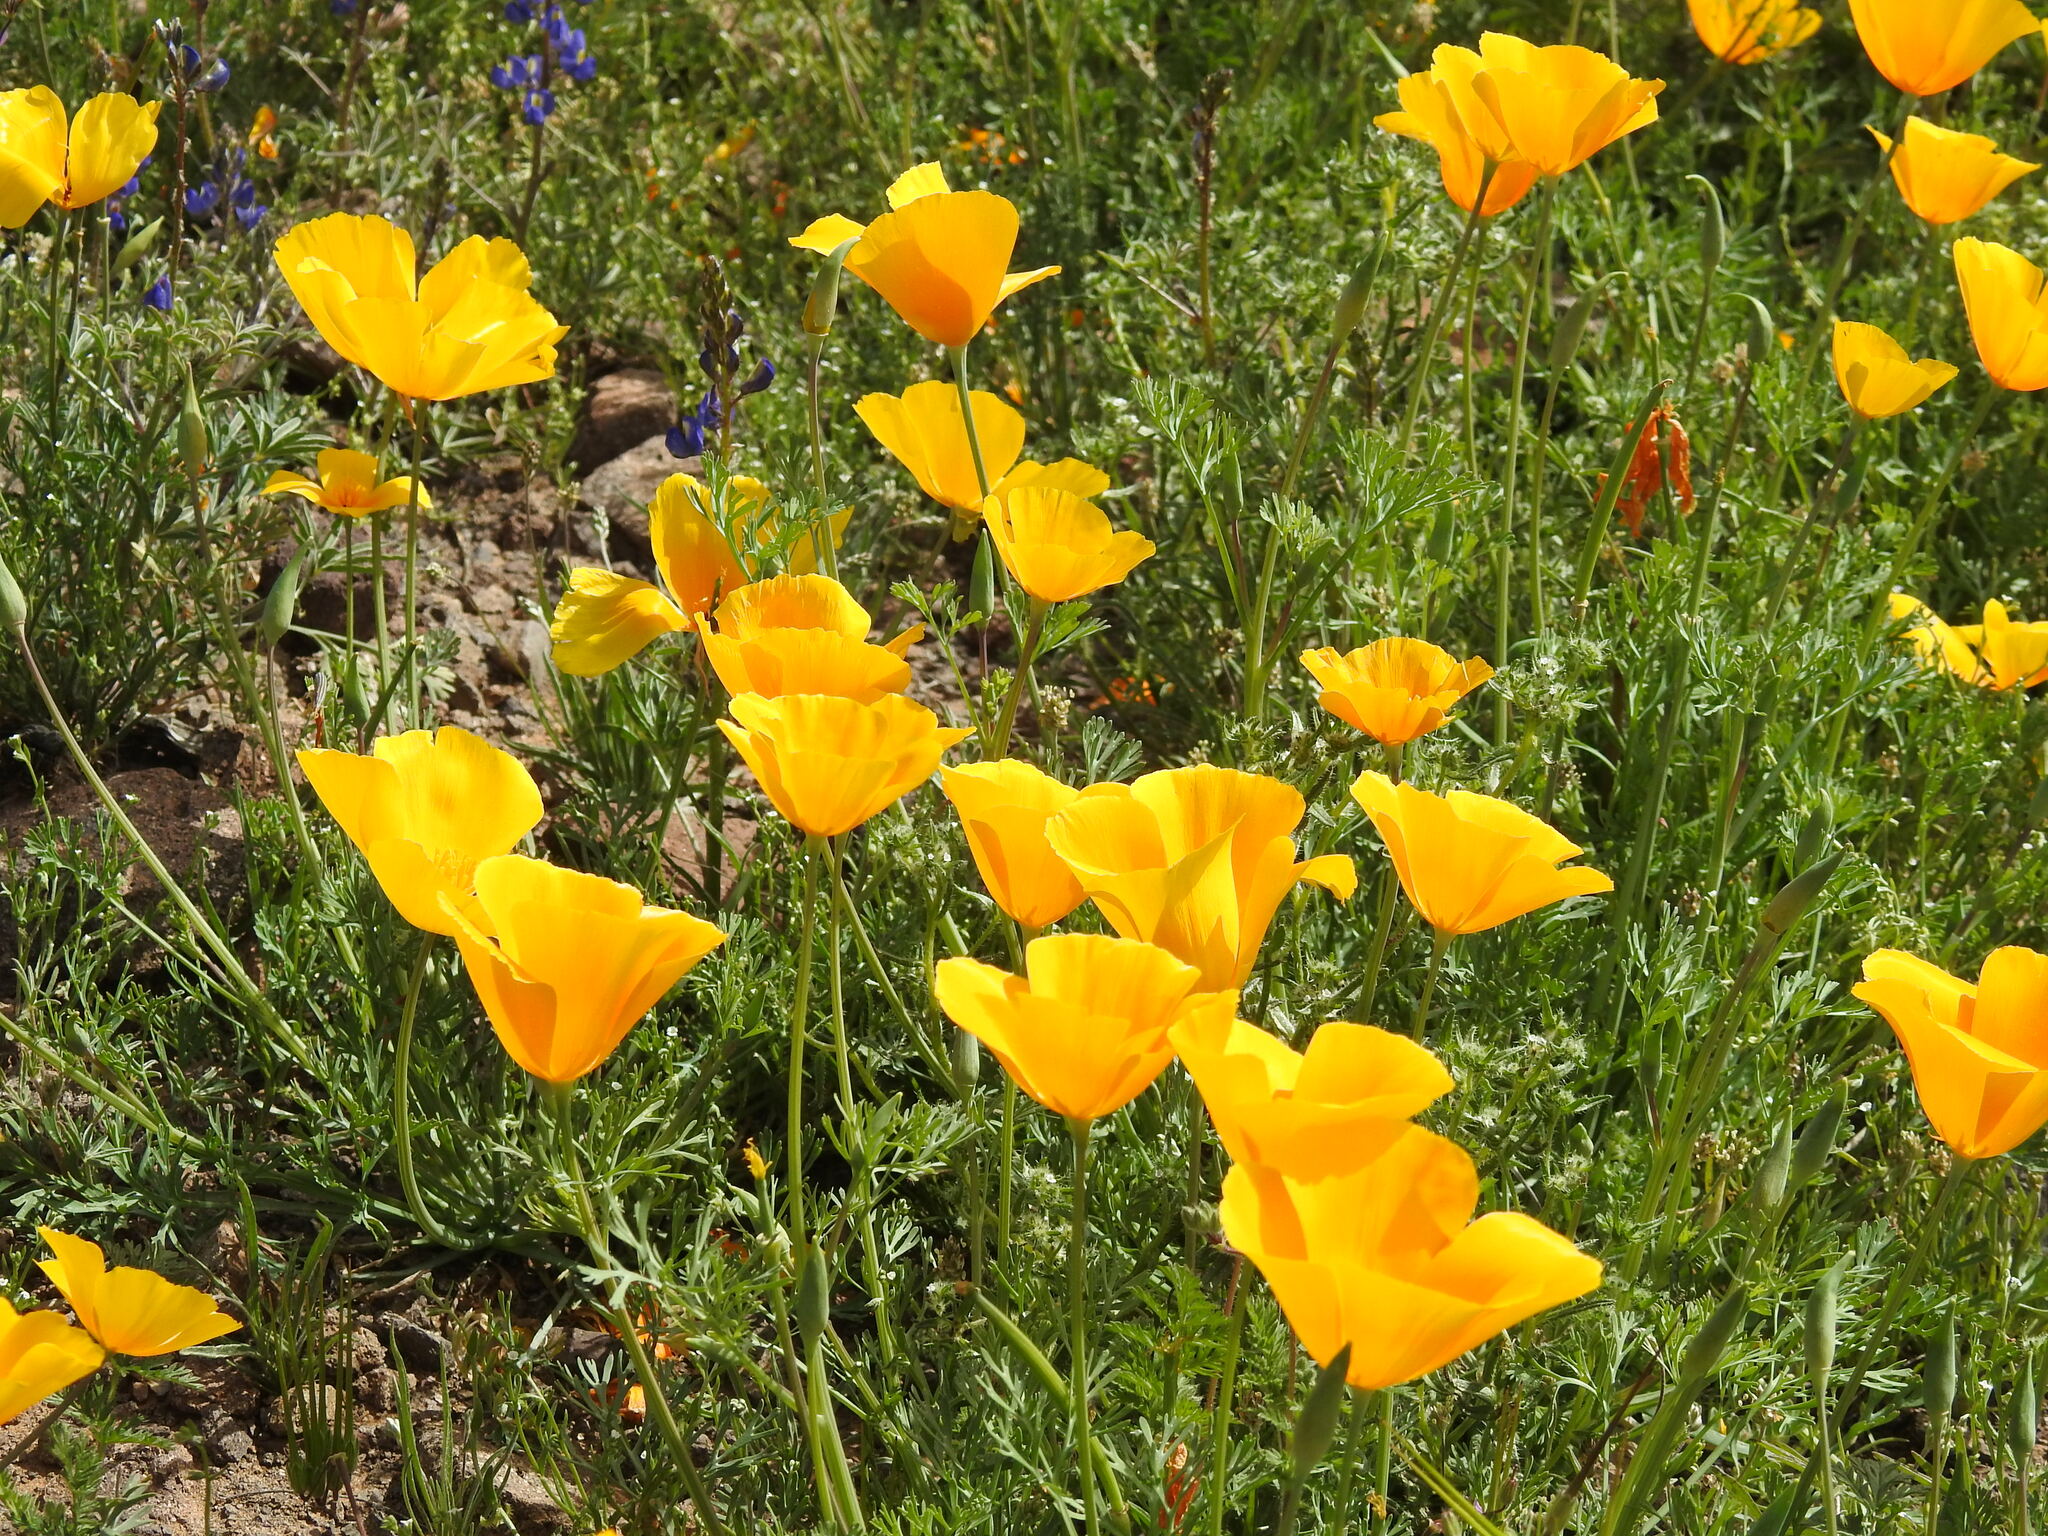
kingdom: Plantae
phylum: Tracheophyta
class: Magnoliopsida
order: Ranunculales
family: Papaveraceae
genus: Eschscholzia
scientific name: Eschscholzia californica
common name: California poppy
